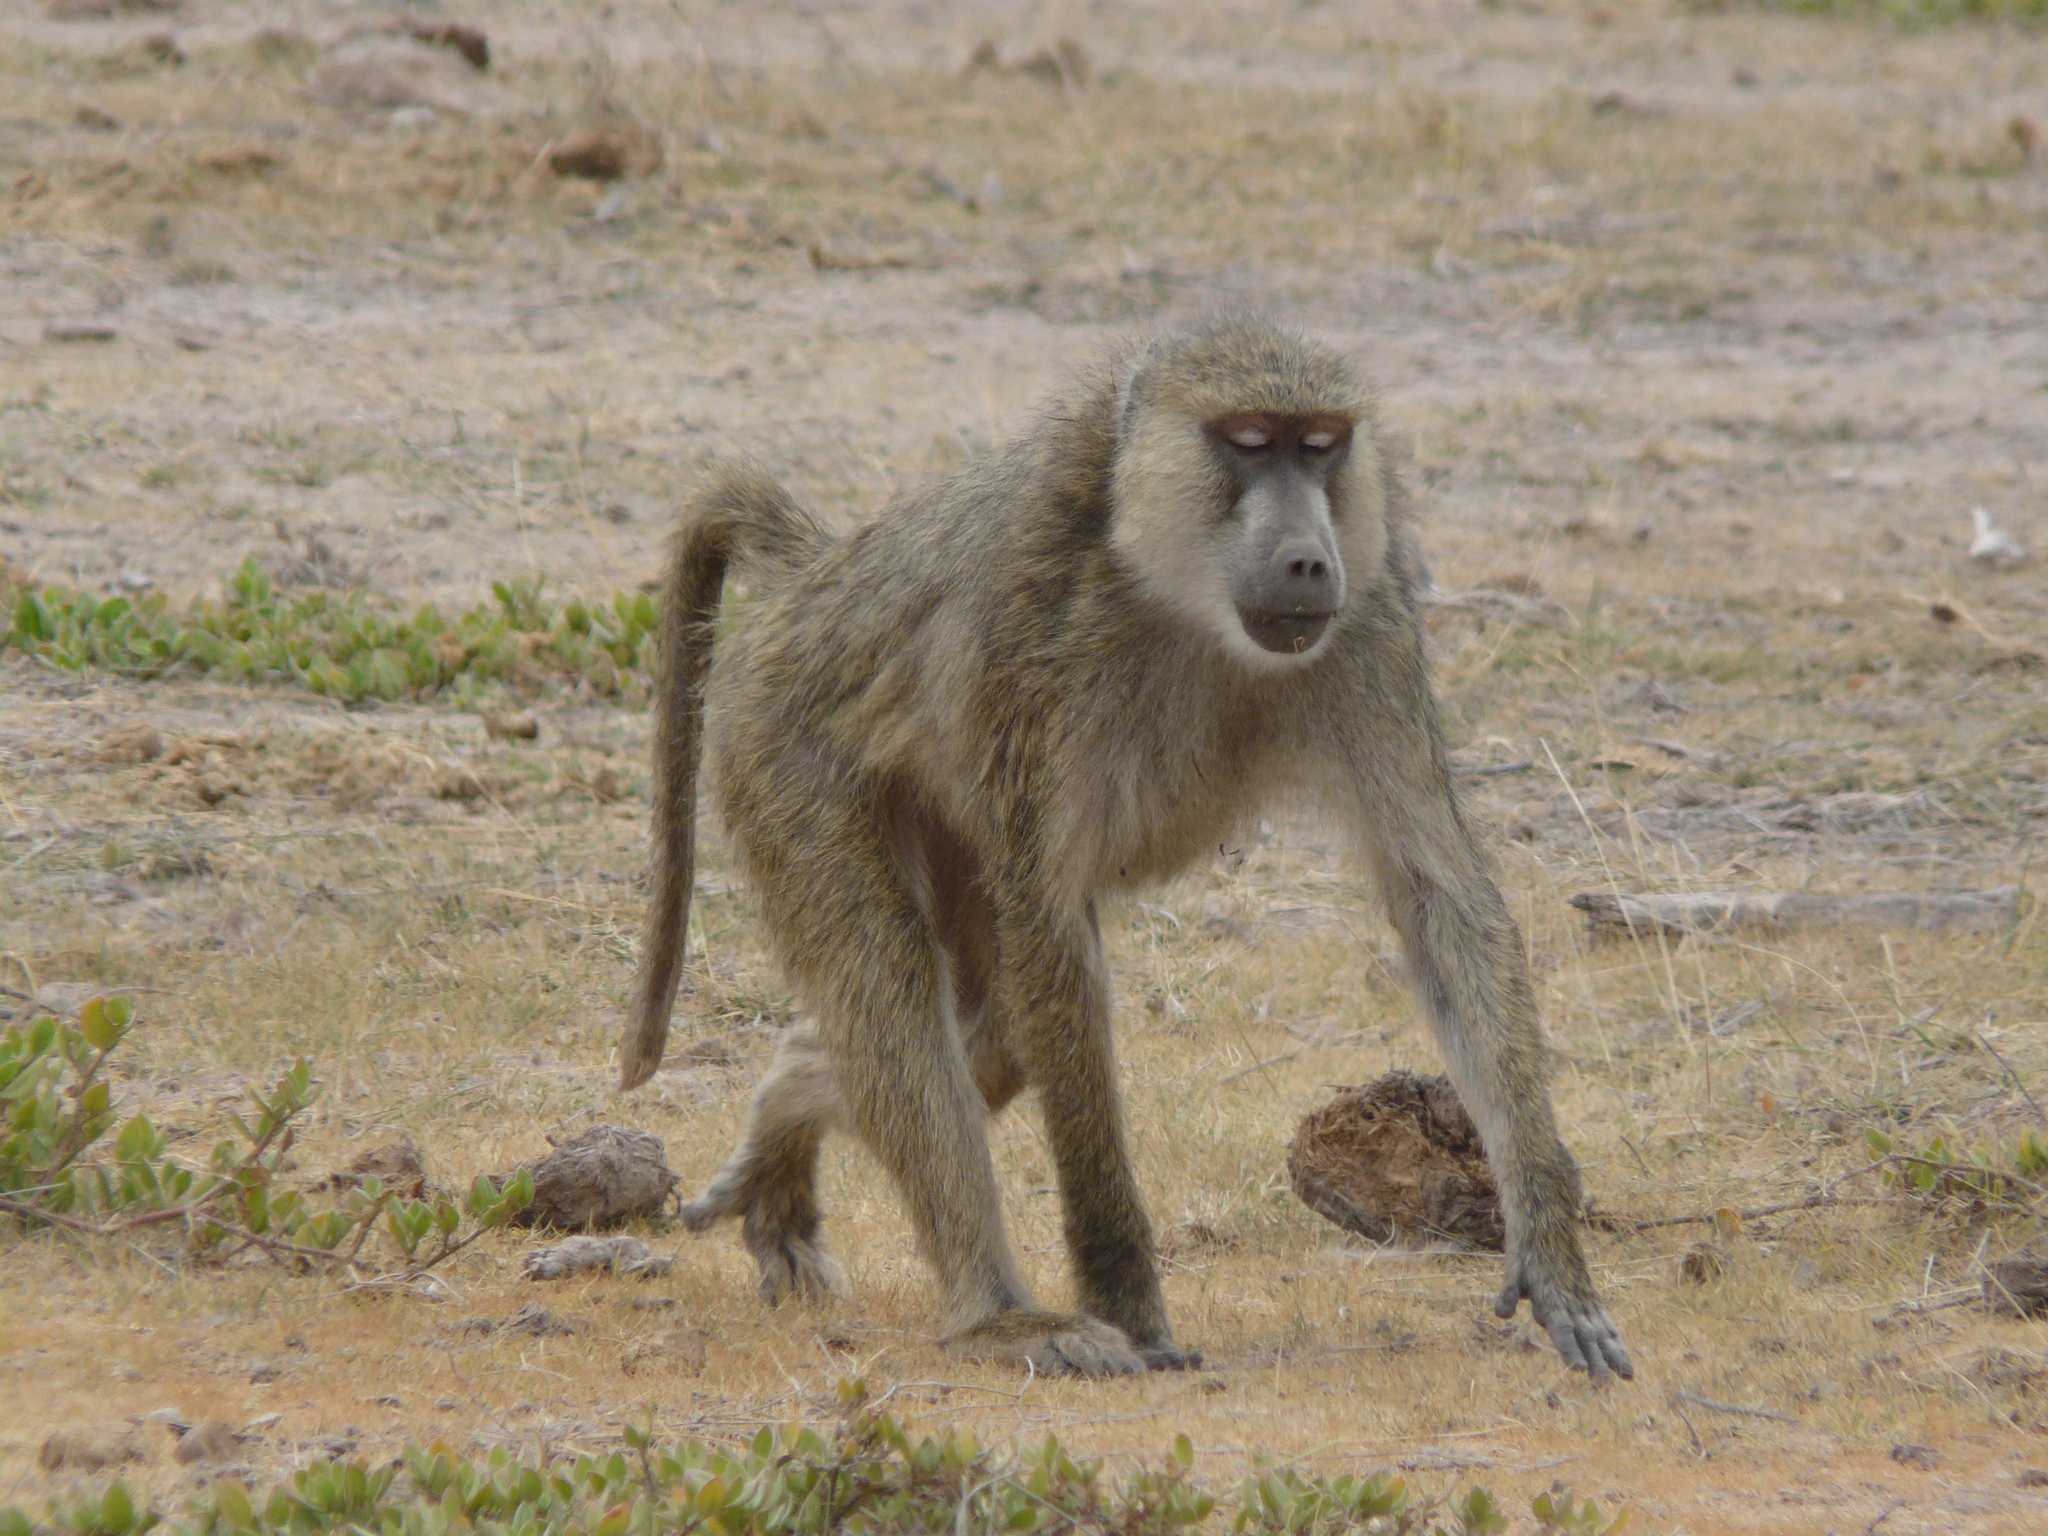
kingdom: Animalia
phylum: Chordata
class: Mammalia
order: Primates
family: Cercopithecidae
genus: Papio
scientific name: Papio cynocephalus
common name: Yellow baboon
